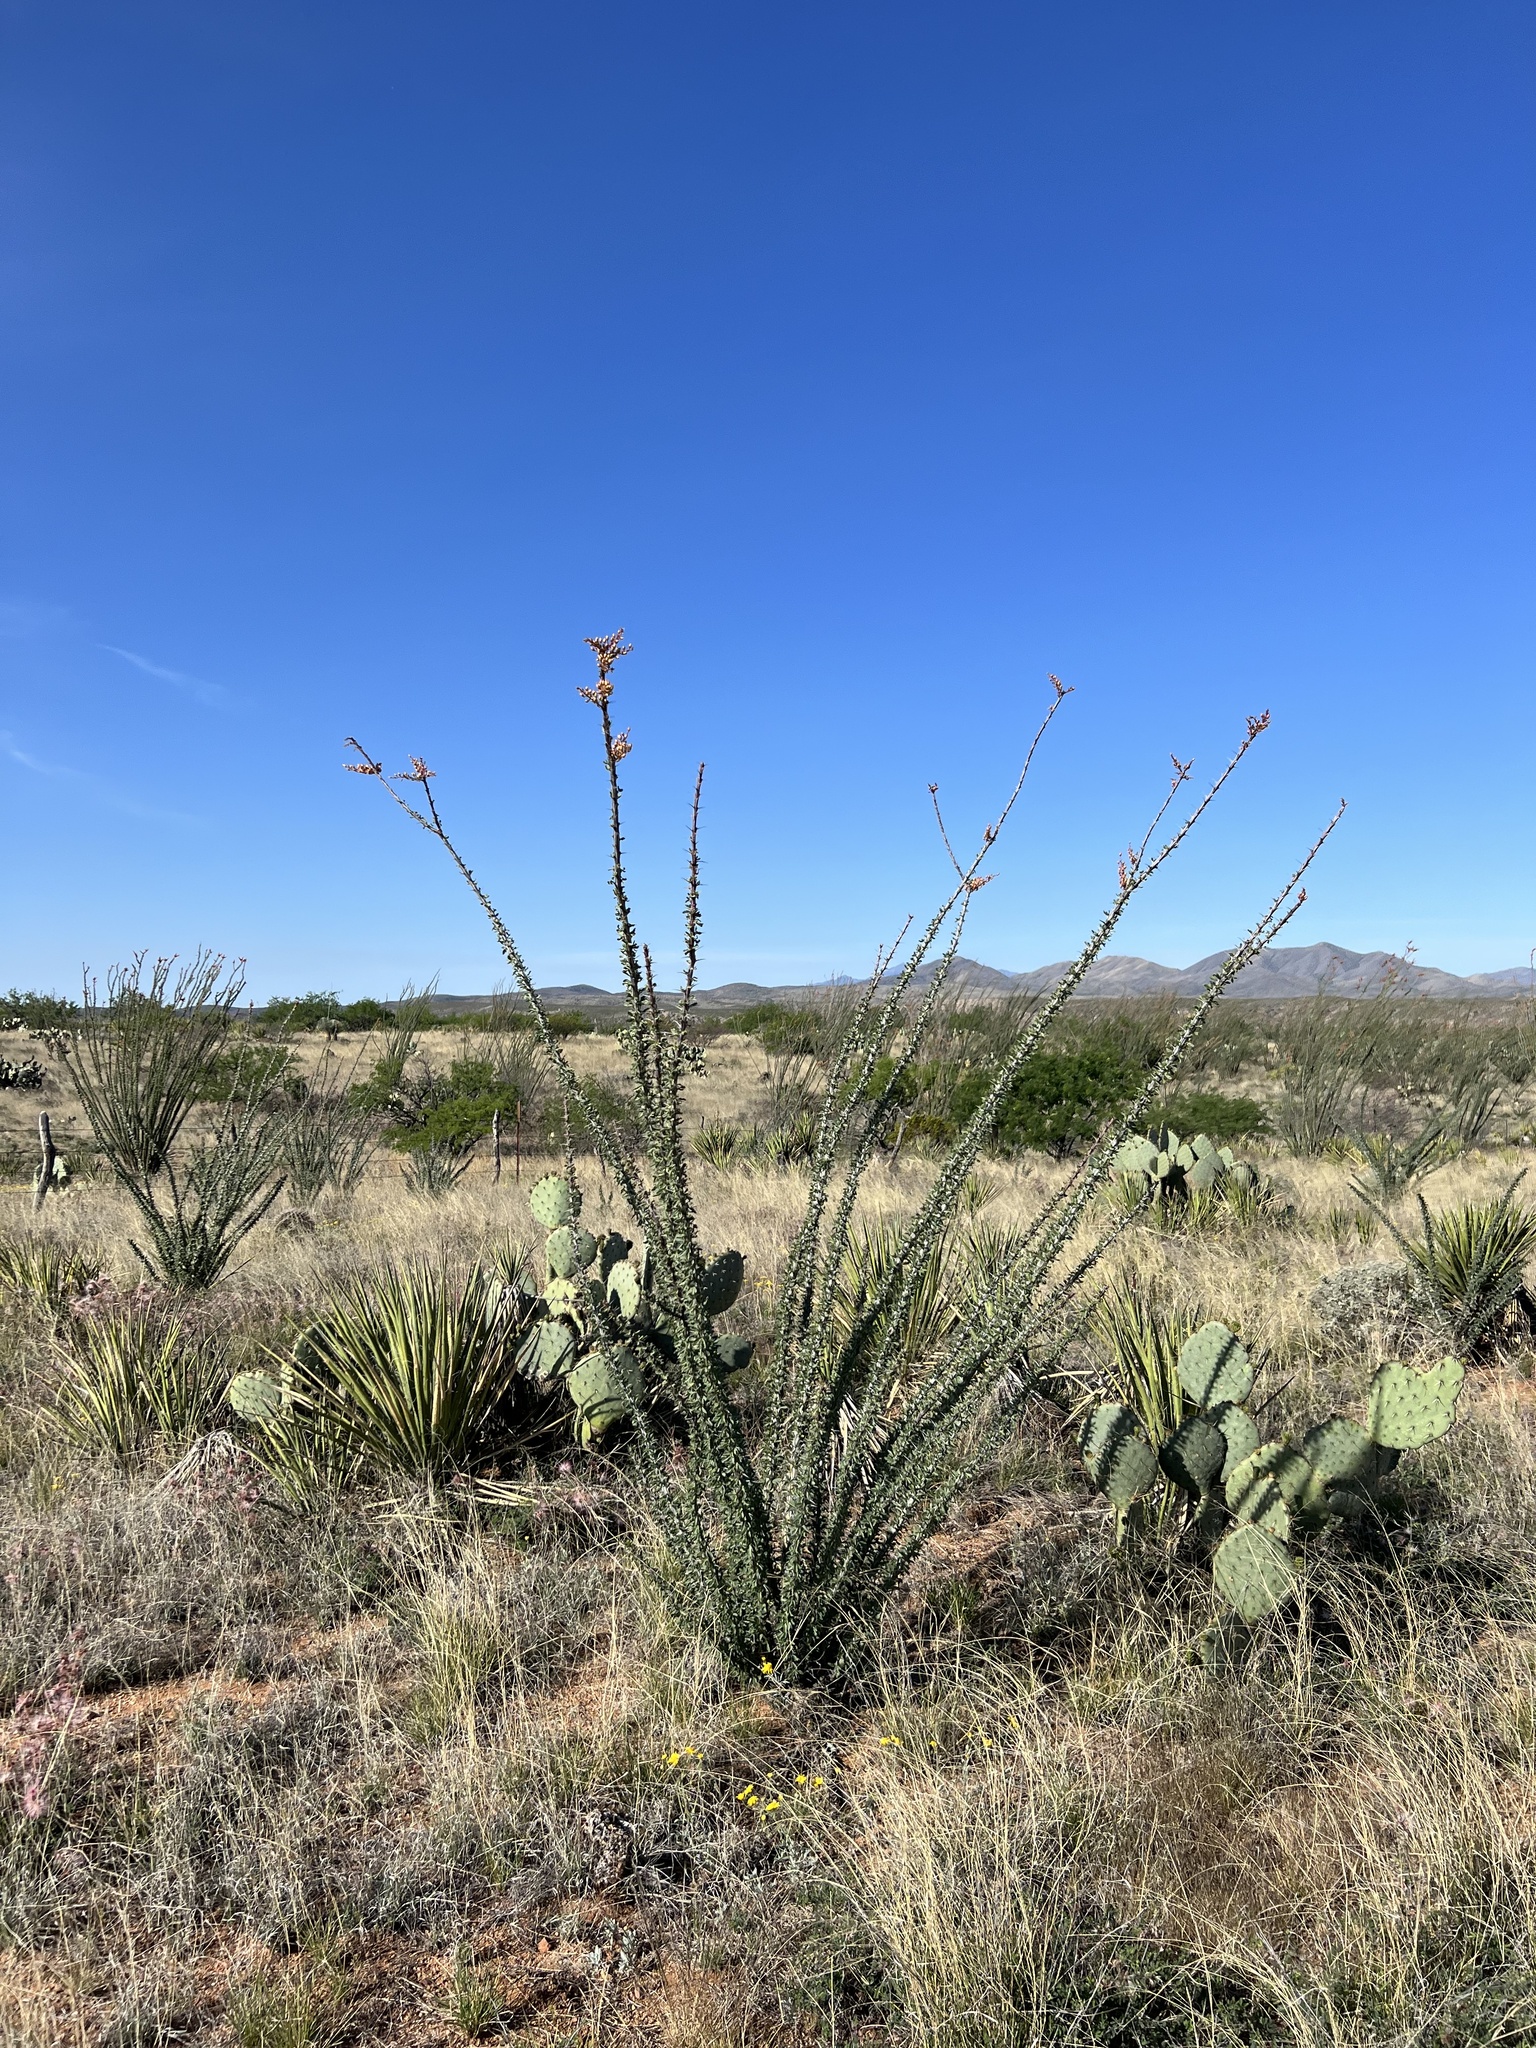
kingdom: Plantae
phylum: Tracheophyta
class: Magnoliopsida
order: Ericales
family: Fouquieriaceae
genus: Fouquieria
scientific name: Fouquieria splendens
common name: Vine-cactus
